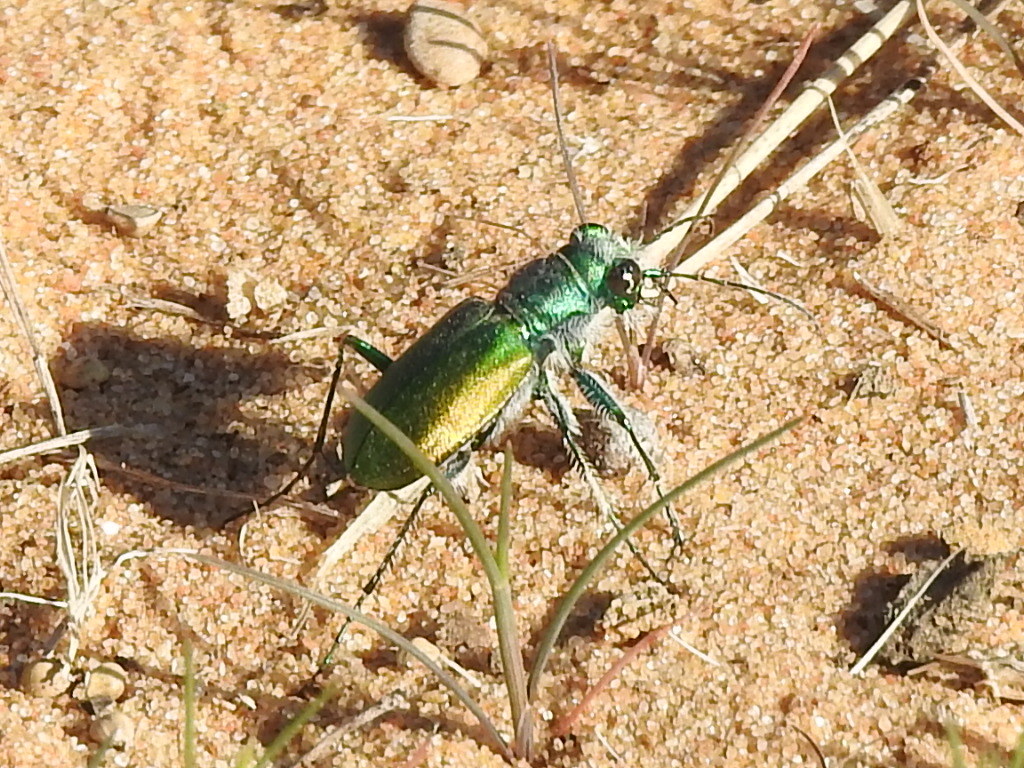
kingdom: Animalia
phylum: Arthropoda
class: Insecta
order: Coleoptera
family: Carabidae
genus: Cicindela
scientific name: Cicindela scutellaris
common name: Festive tiger beetle
